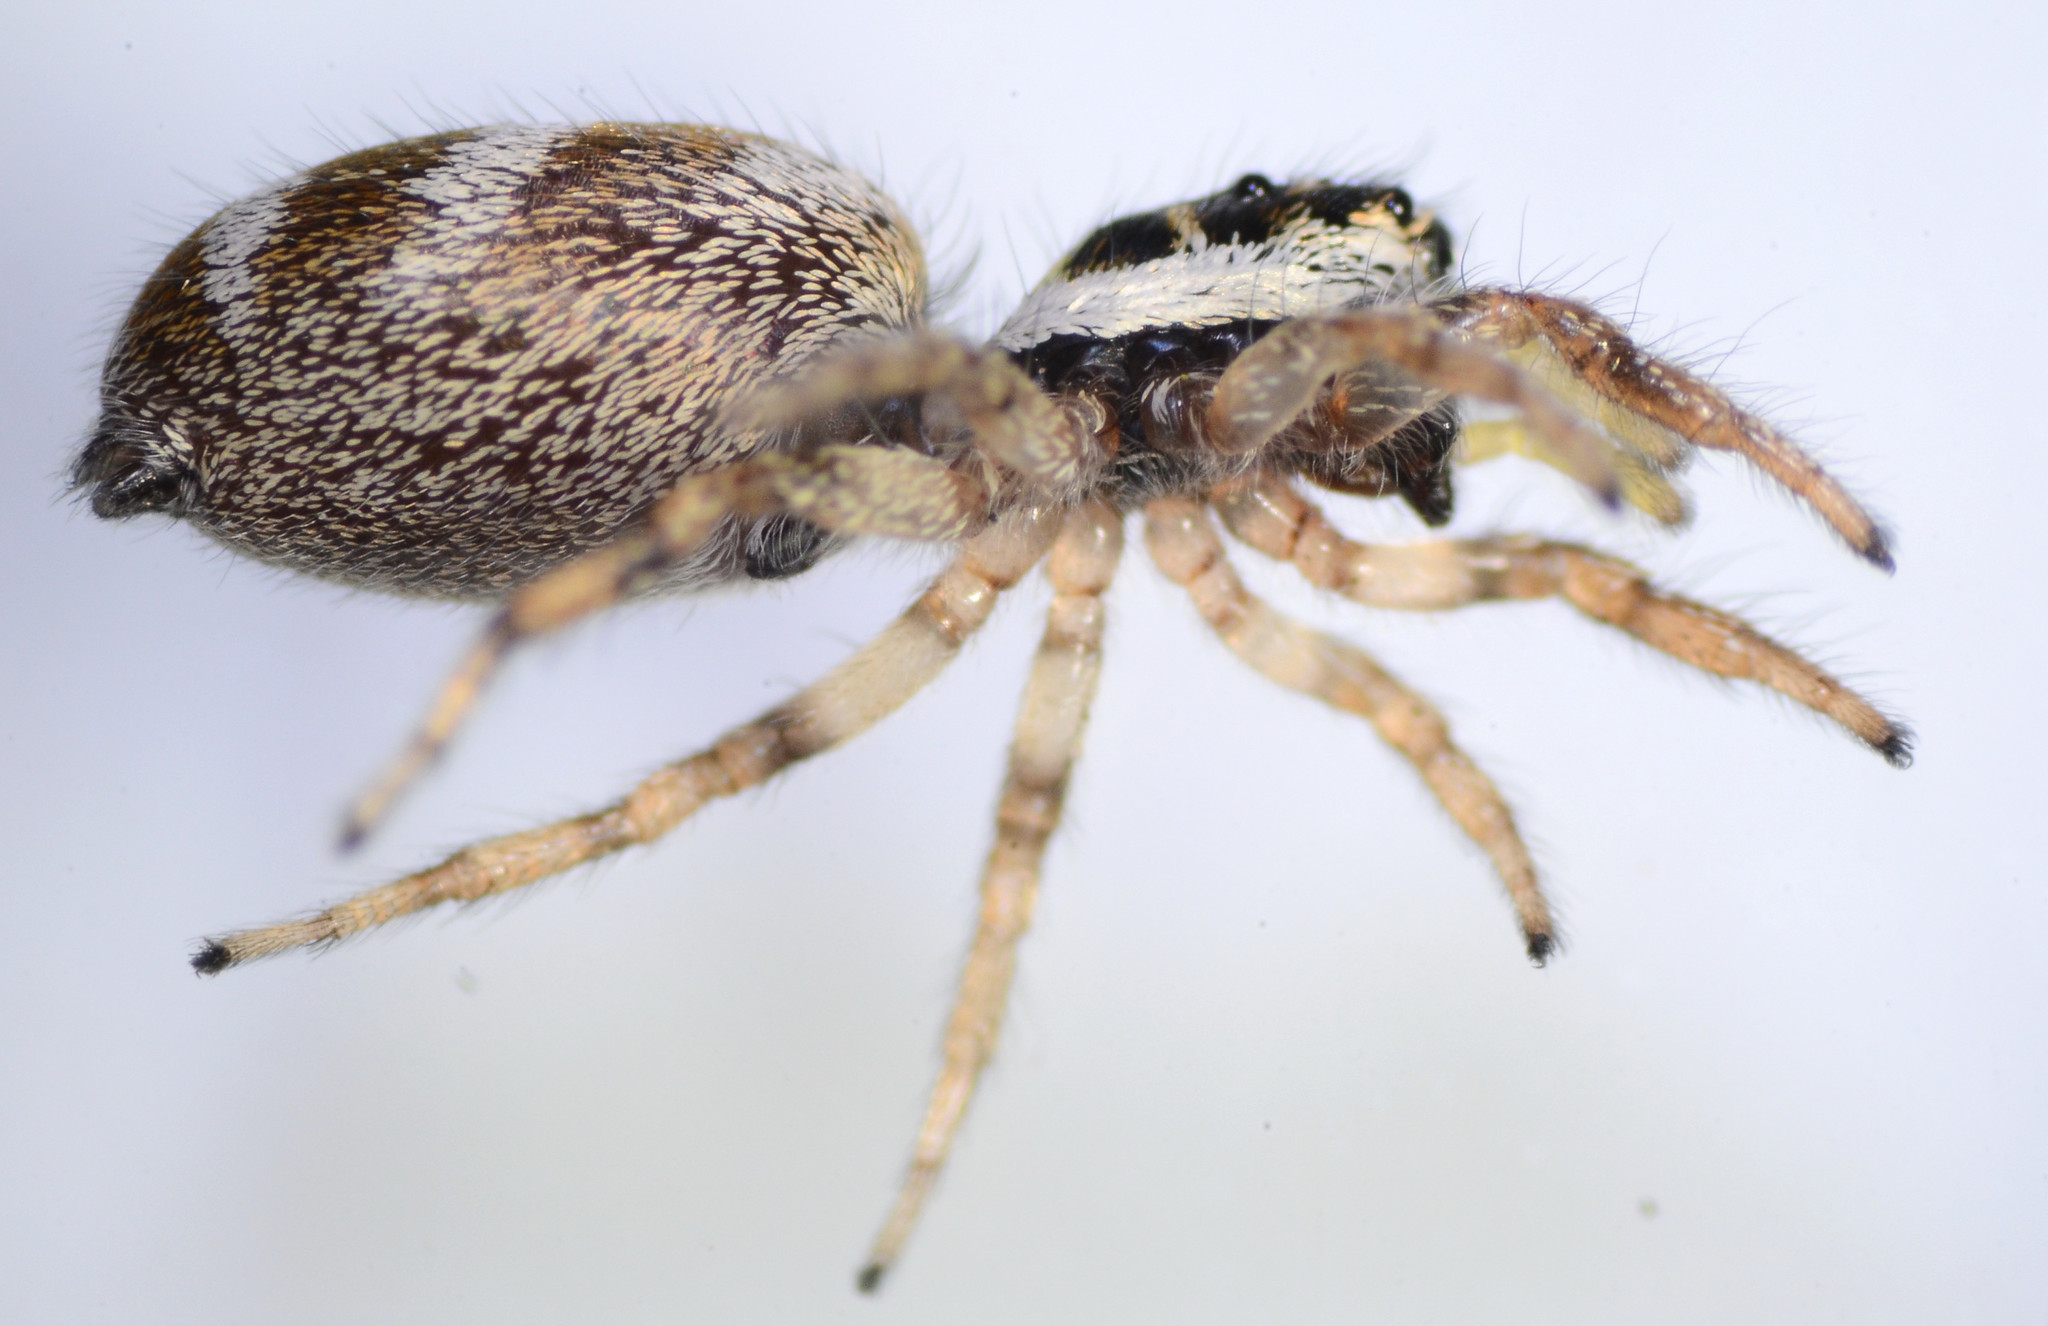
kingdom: Animalia
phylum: Arthropoda
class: Arachnida
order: Araneae
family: Salticidae
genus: Salticus
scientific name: Salticus scenicus
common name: Zebra jumper
